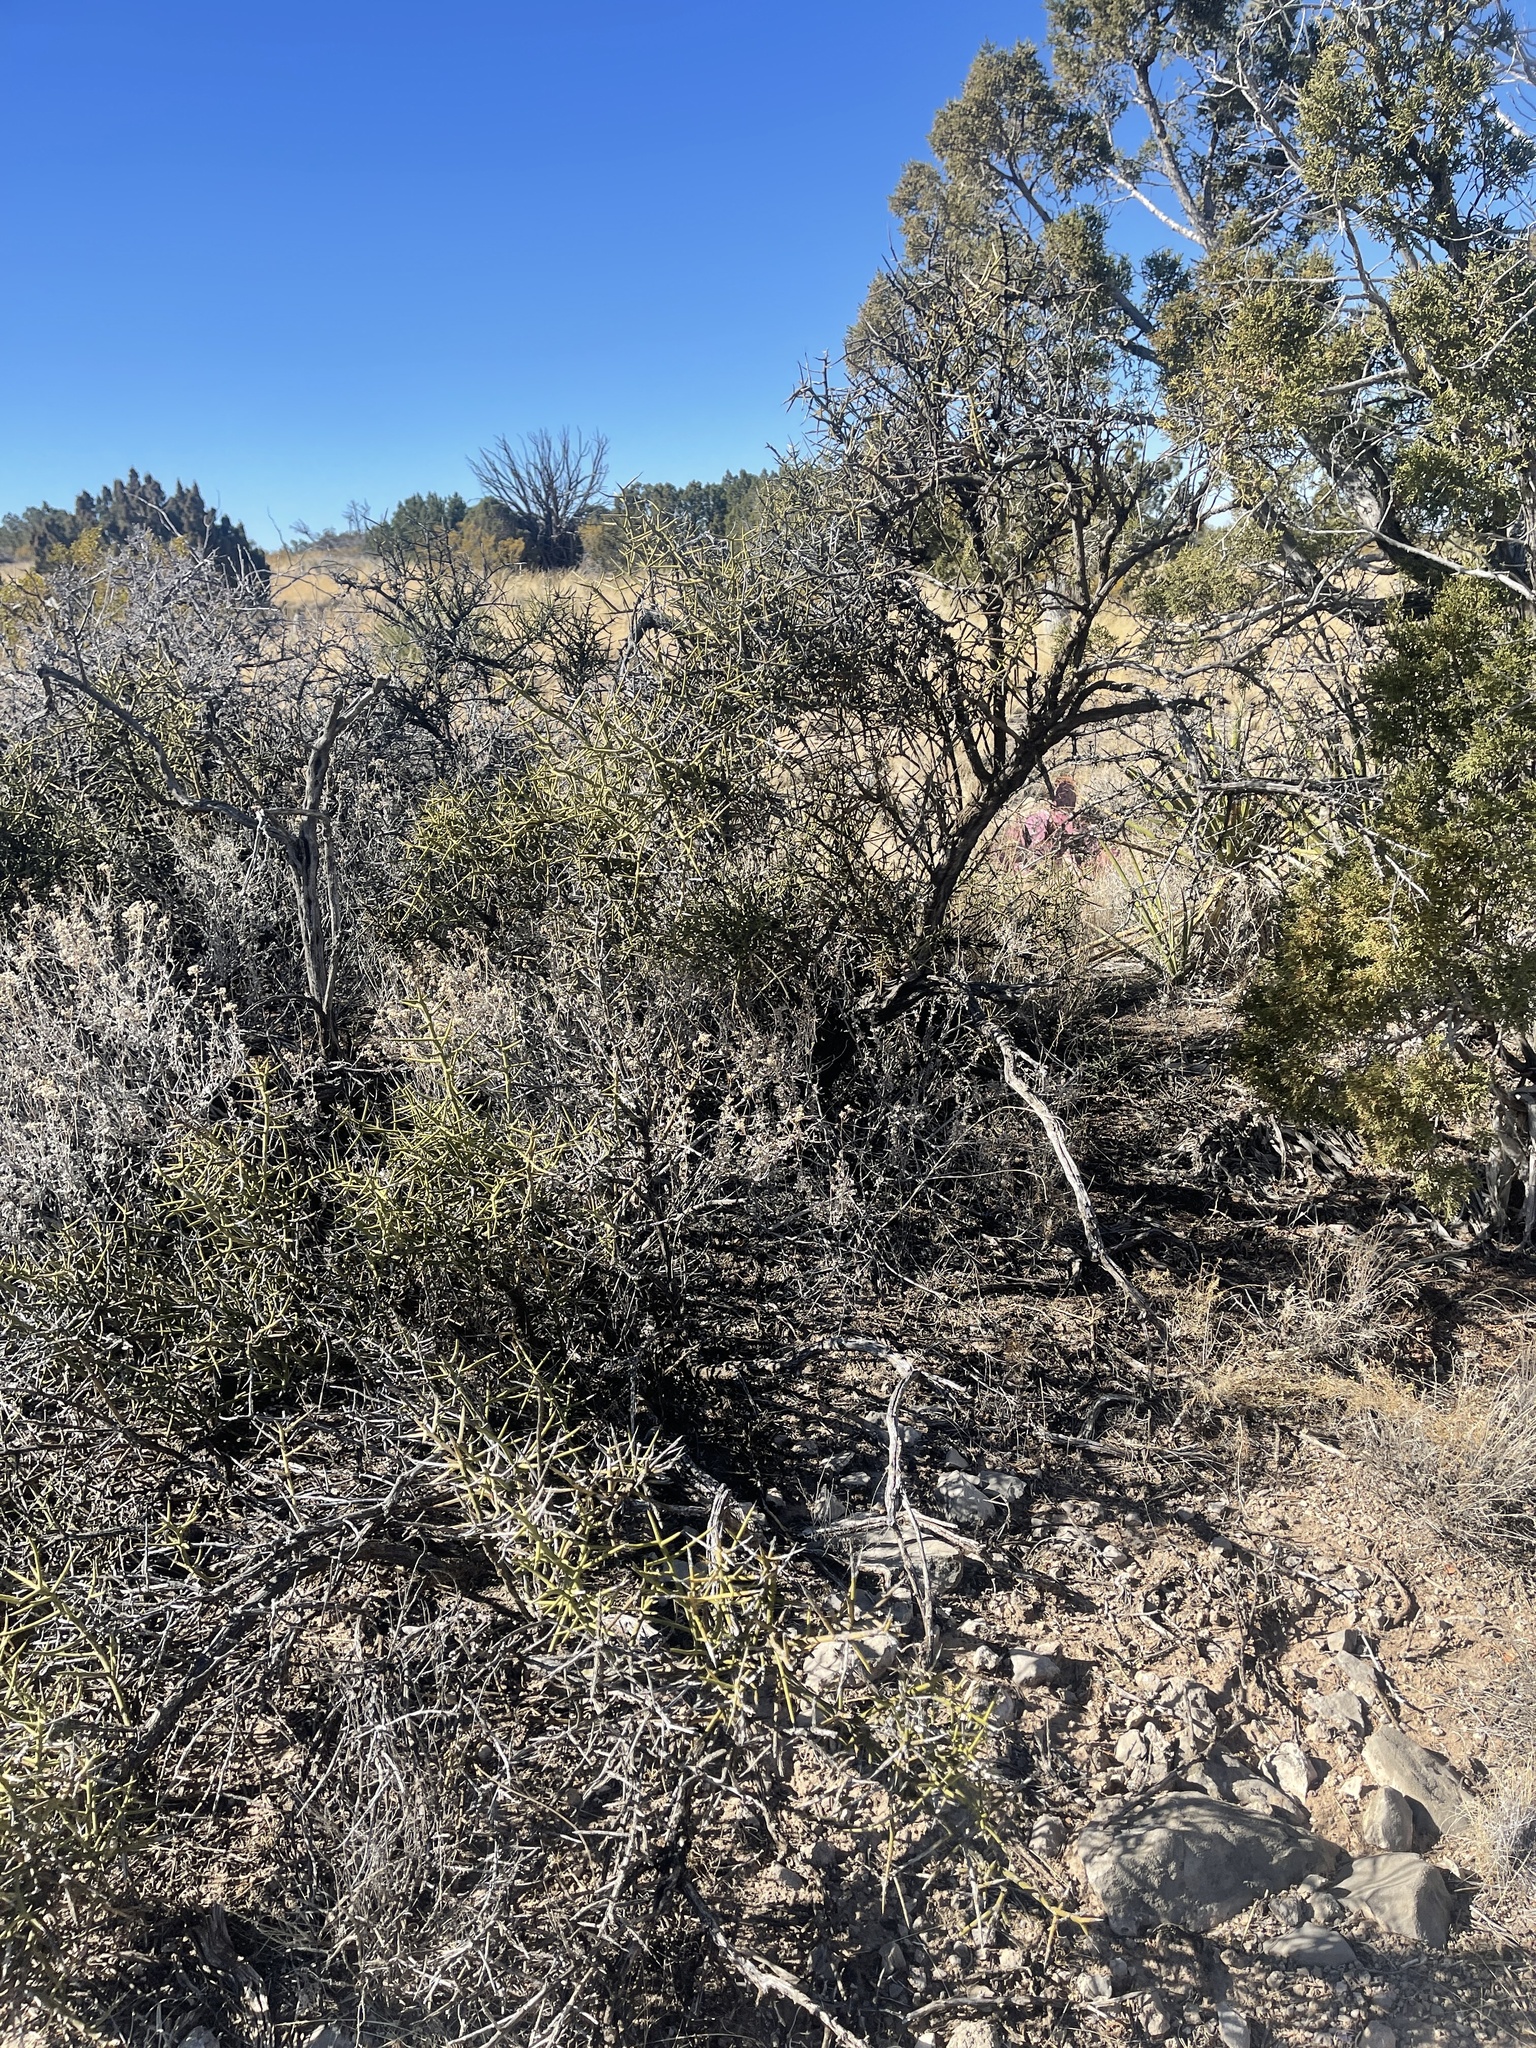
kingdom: Plantae
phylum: Tracheophyta
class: Magnoliopsida
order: Brassicales
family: Koeberliniaceae
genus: Koeberlinia
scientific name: Koeberlinia spinosa
